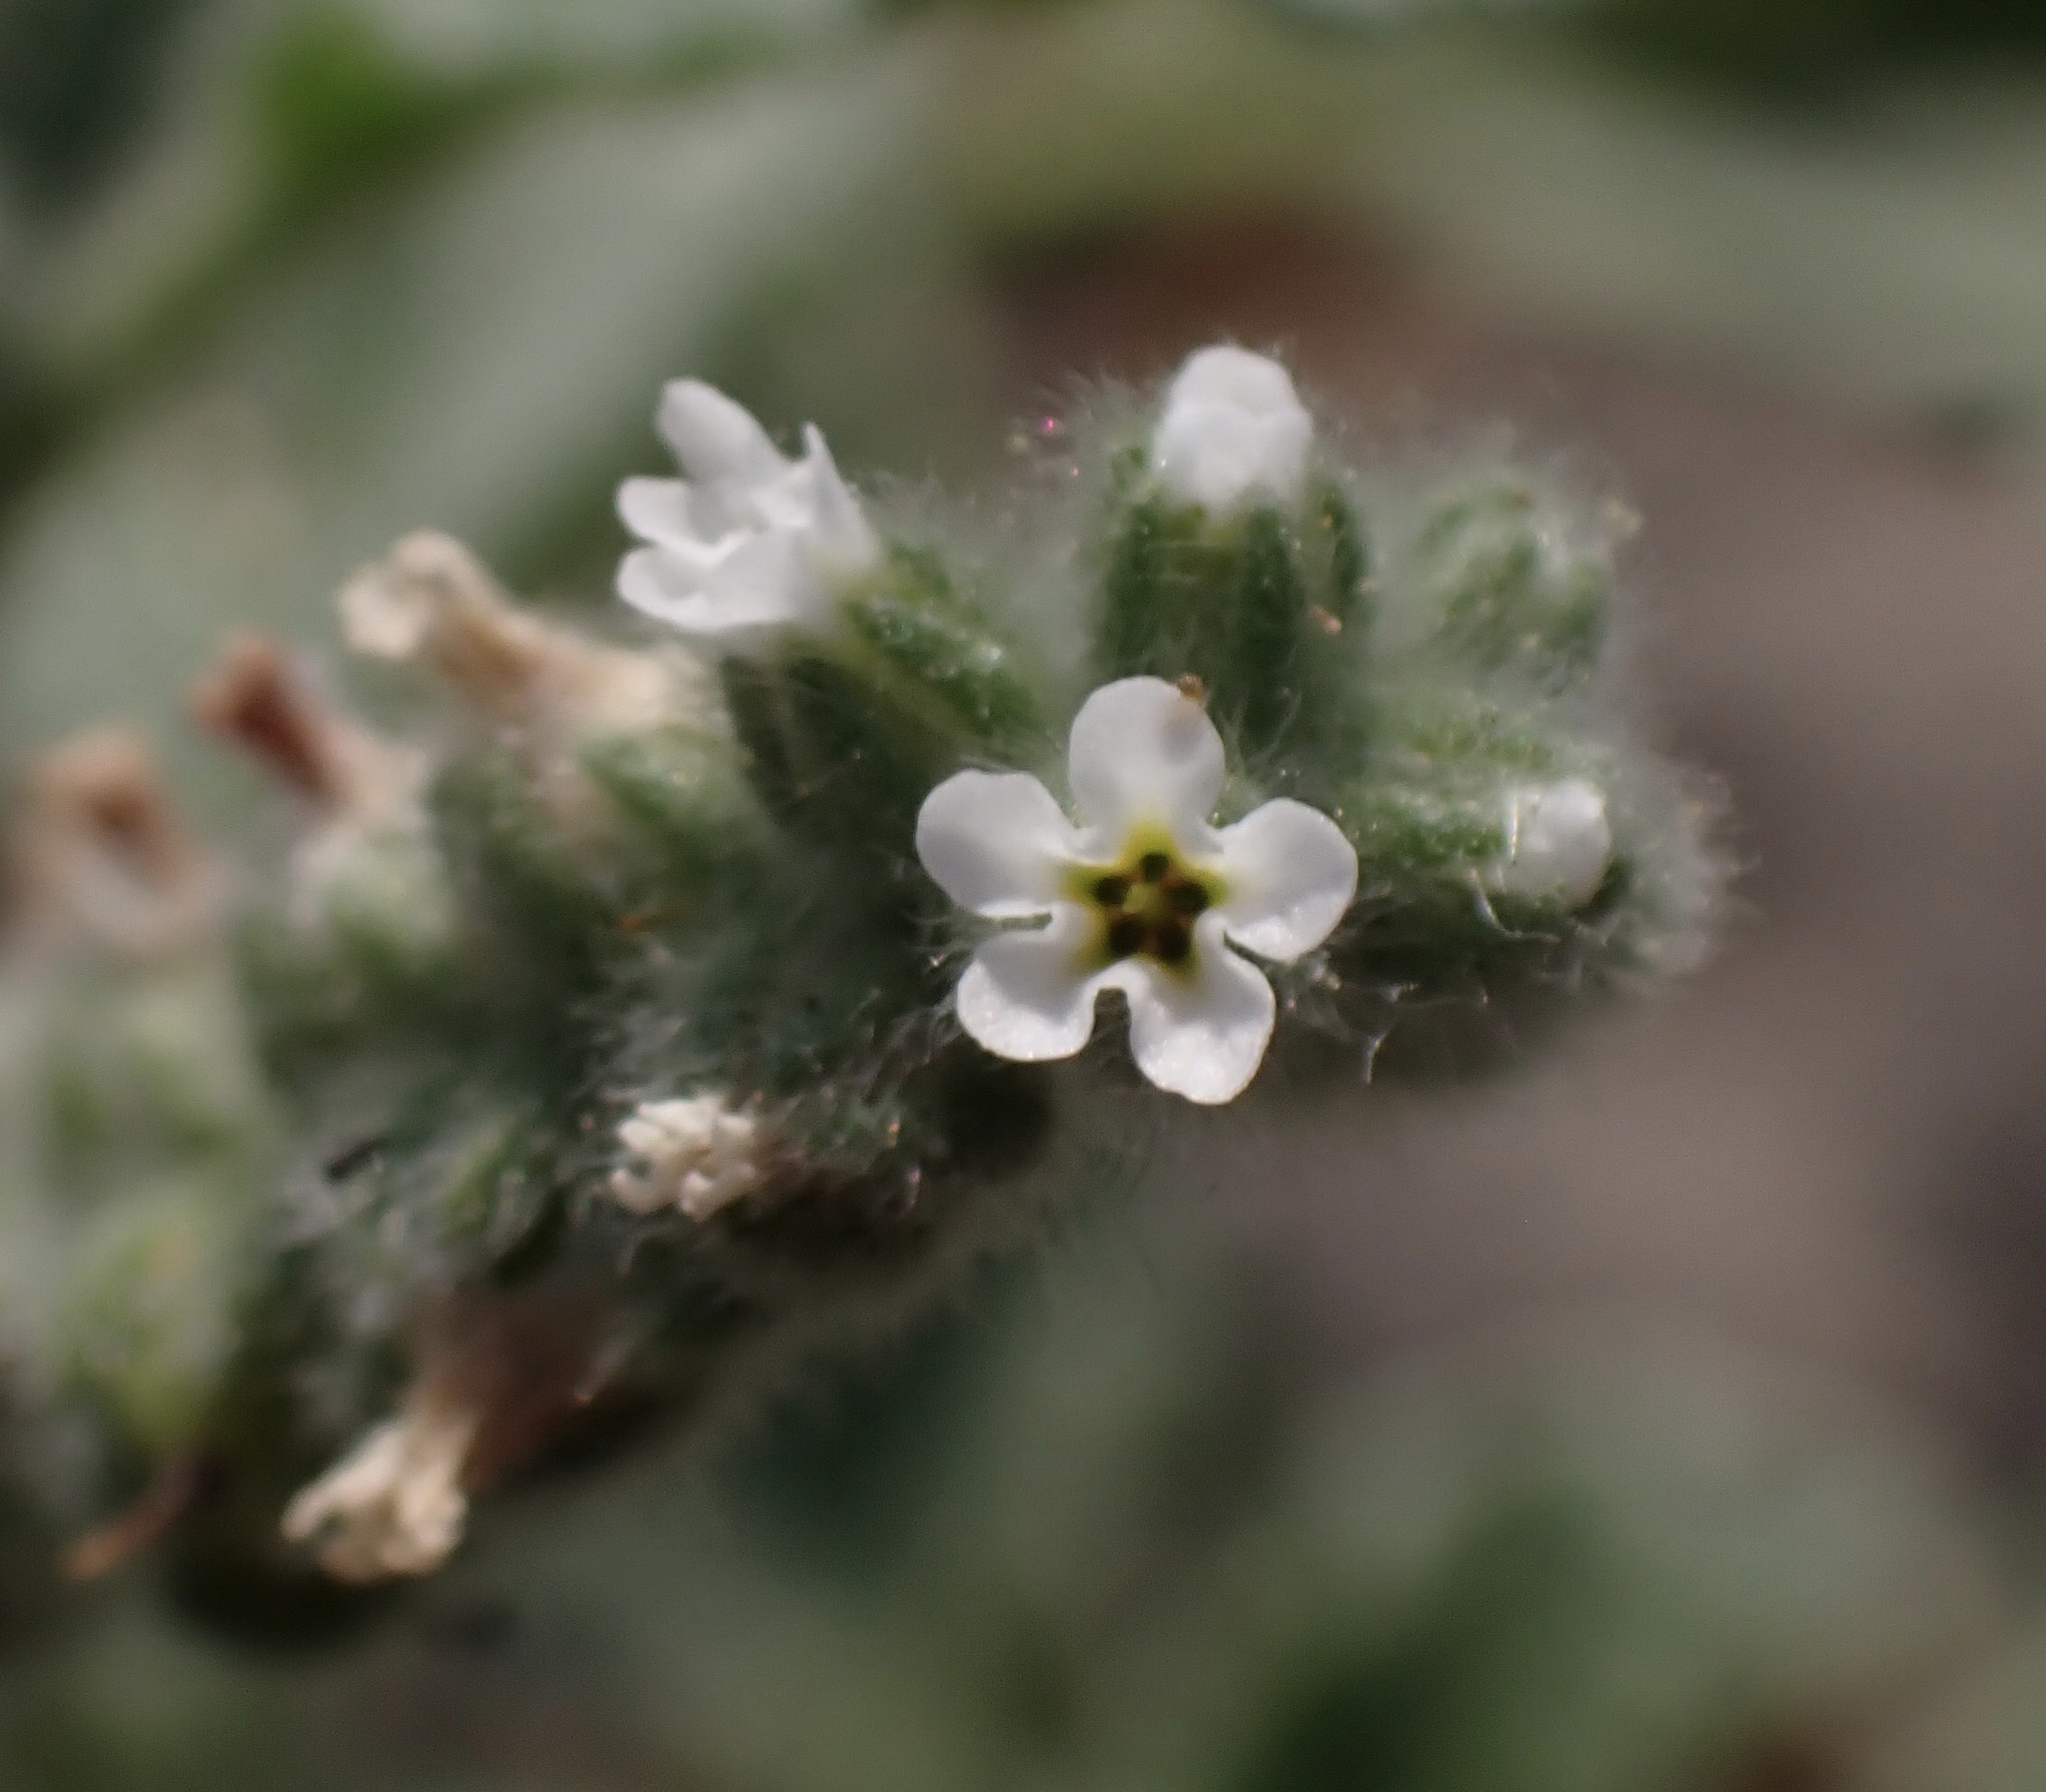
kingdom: Plantae
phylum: Tracheophyta
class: Magnoliopsida
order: Boraginales
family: Heliotropiaceae
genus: Heliotropium
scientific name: Heliotropium europaeum
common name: European heliotrope
